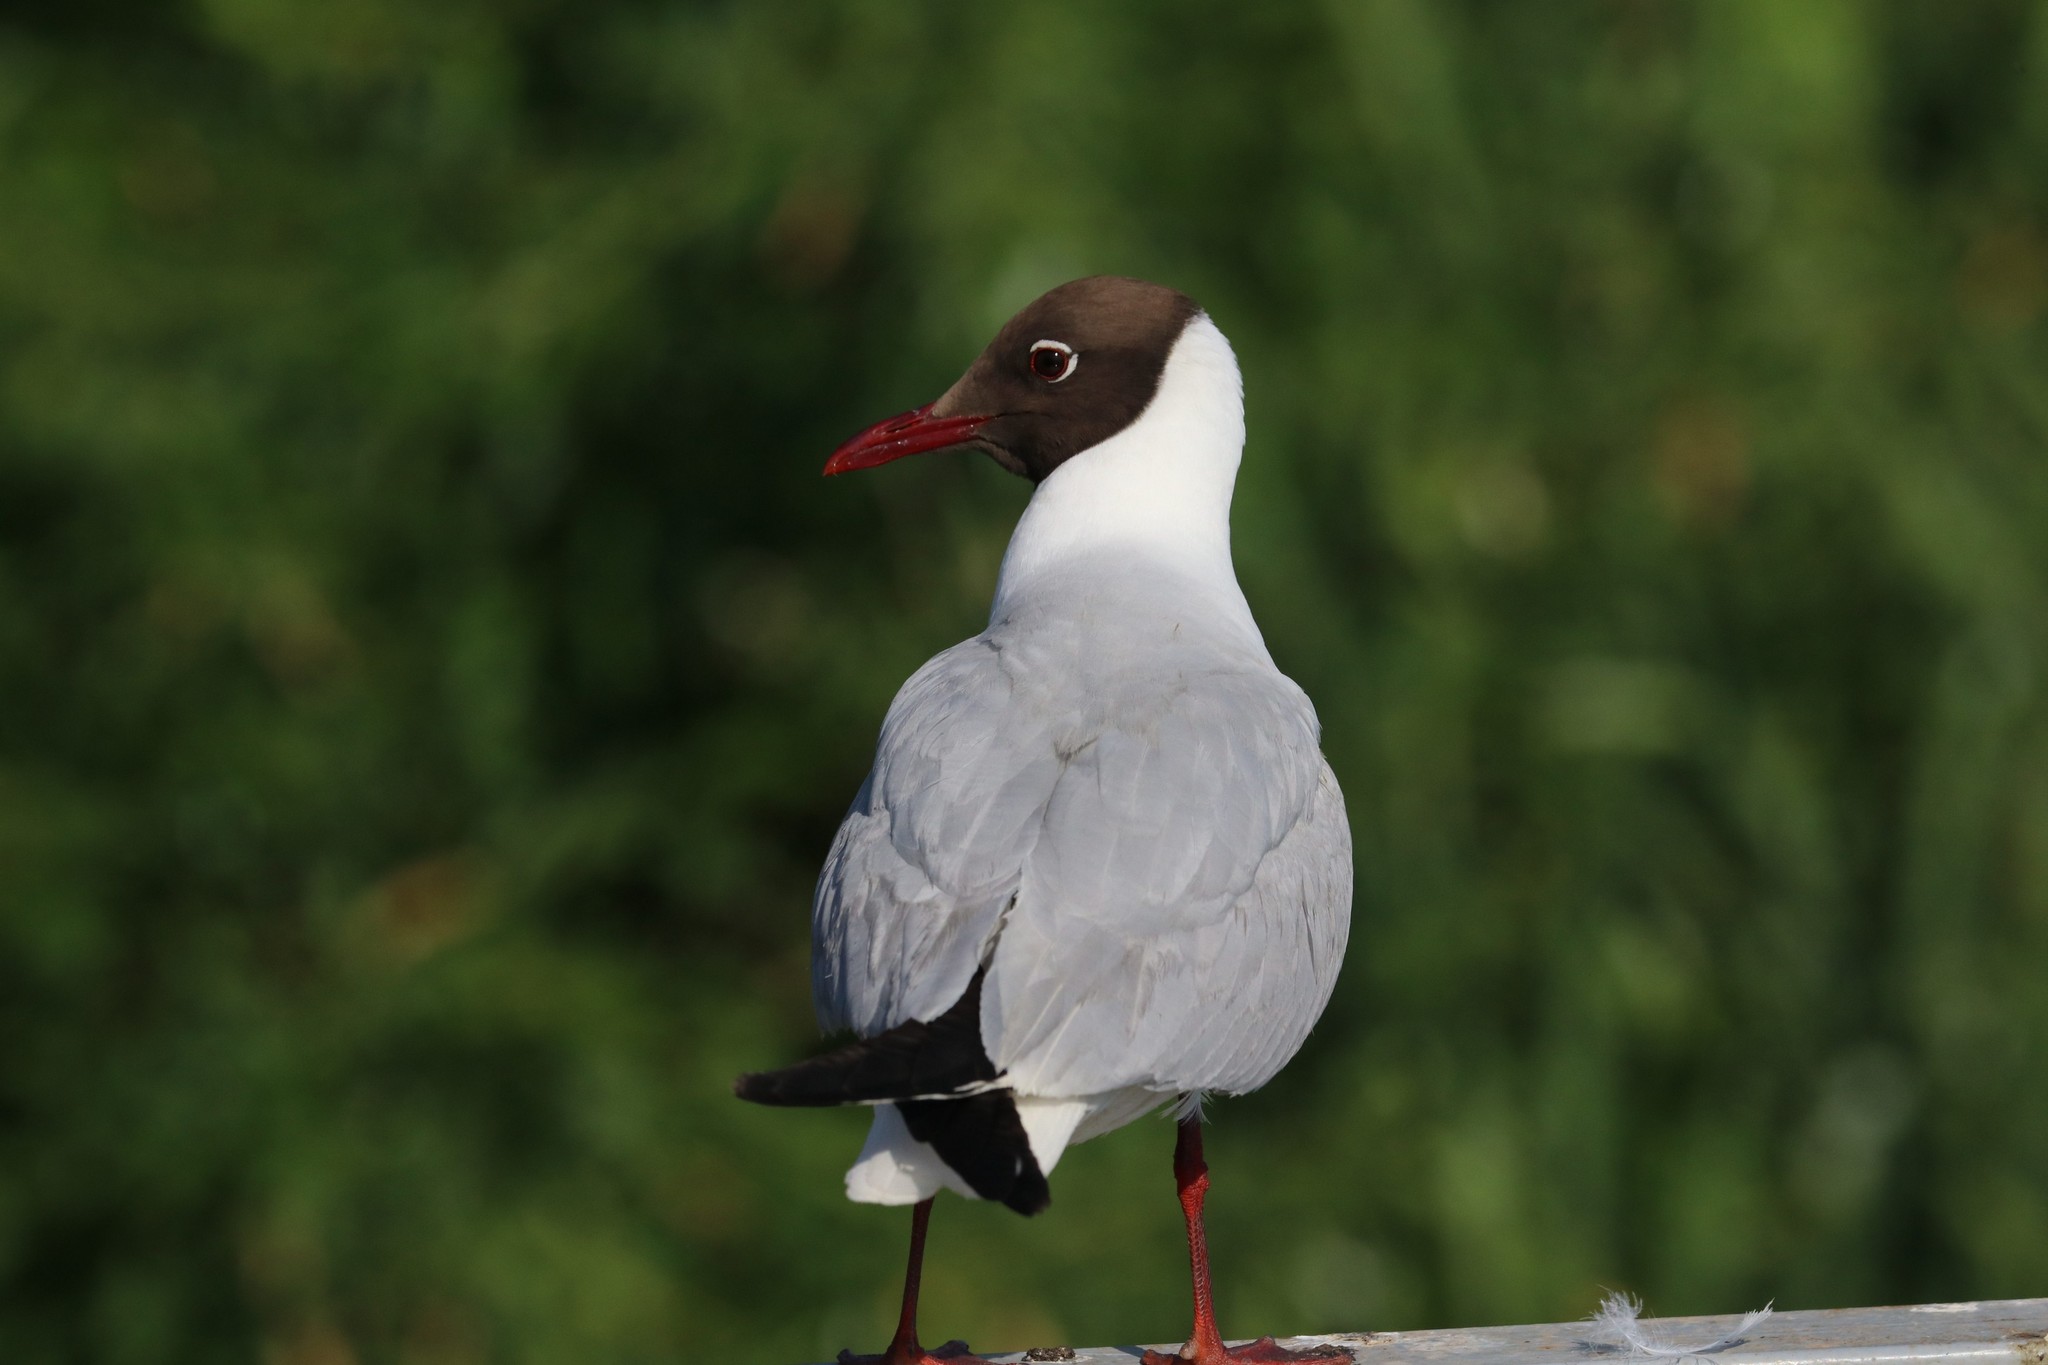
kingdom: Animalia
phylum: Chordata
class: Aves
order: Charadriiformes
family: Laridae
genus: Chroicocephalus
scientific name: Chroicocephalus ridibundus
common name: Black-headed gull
